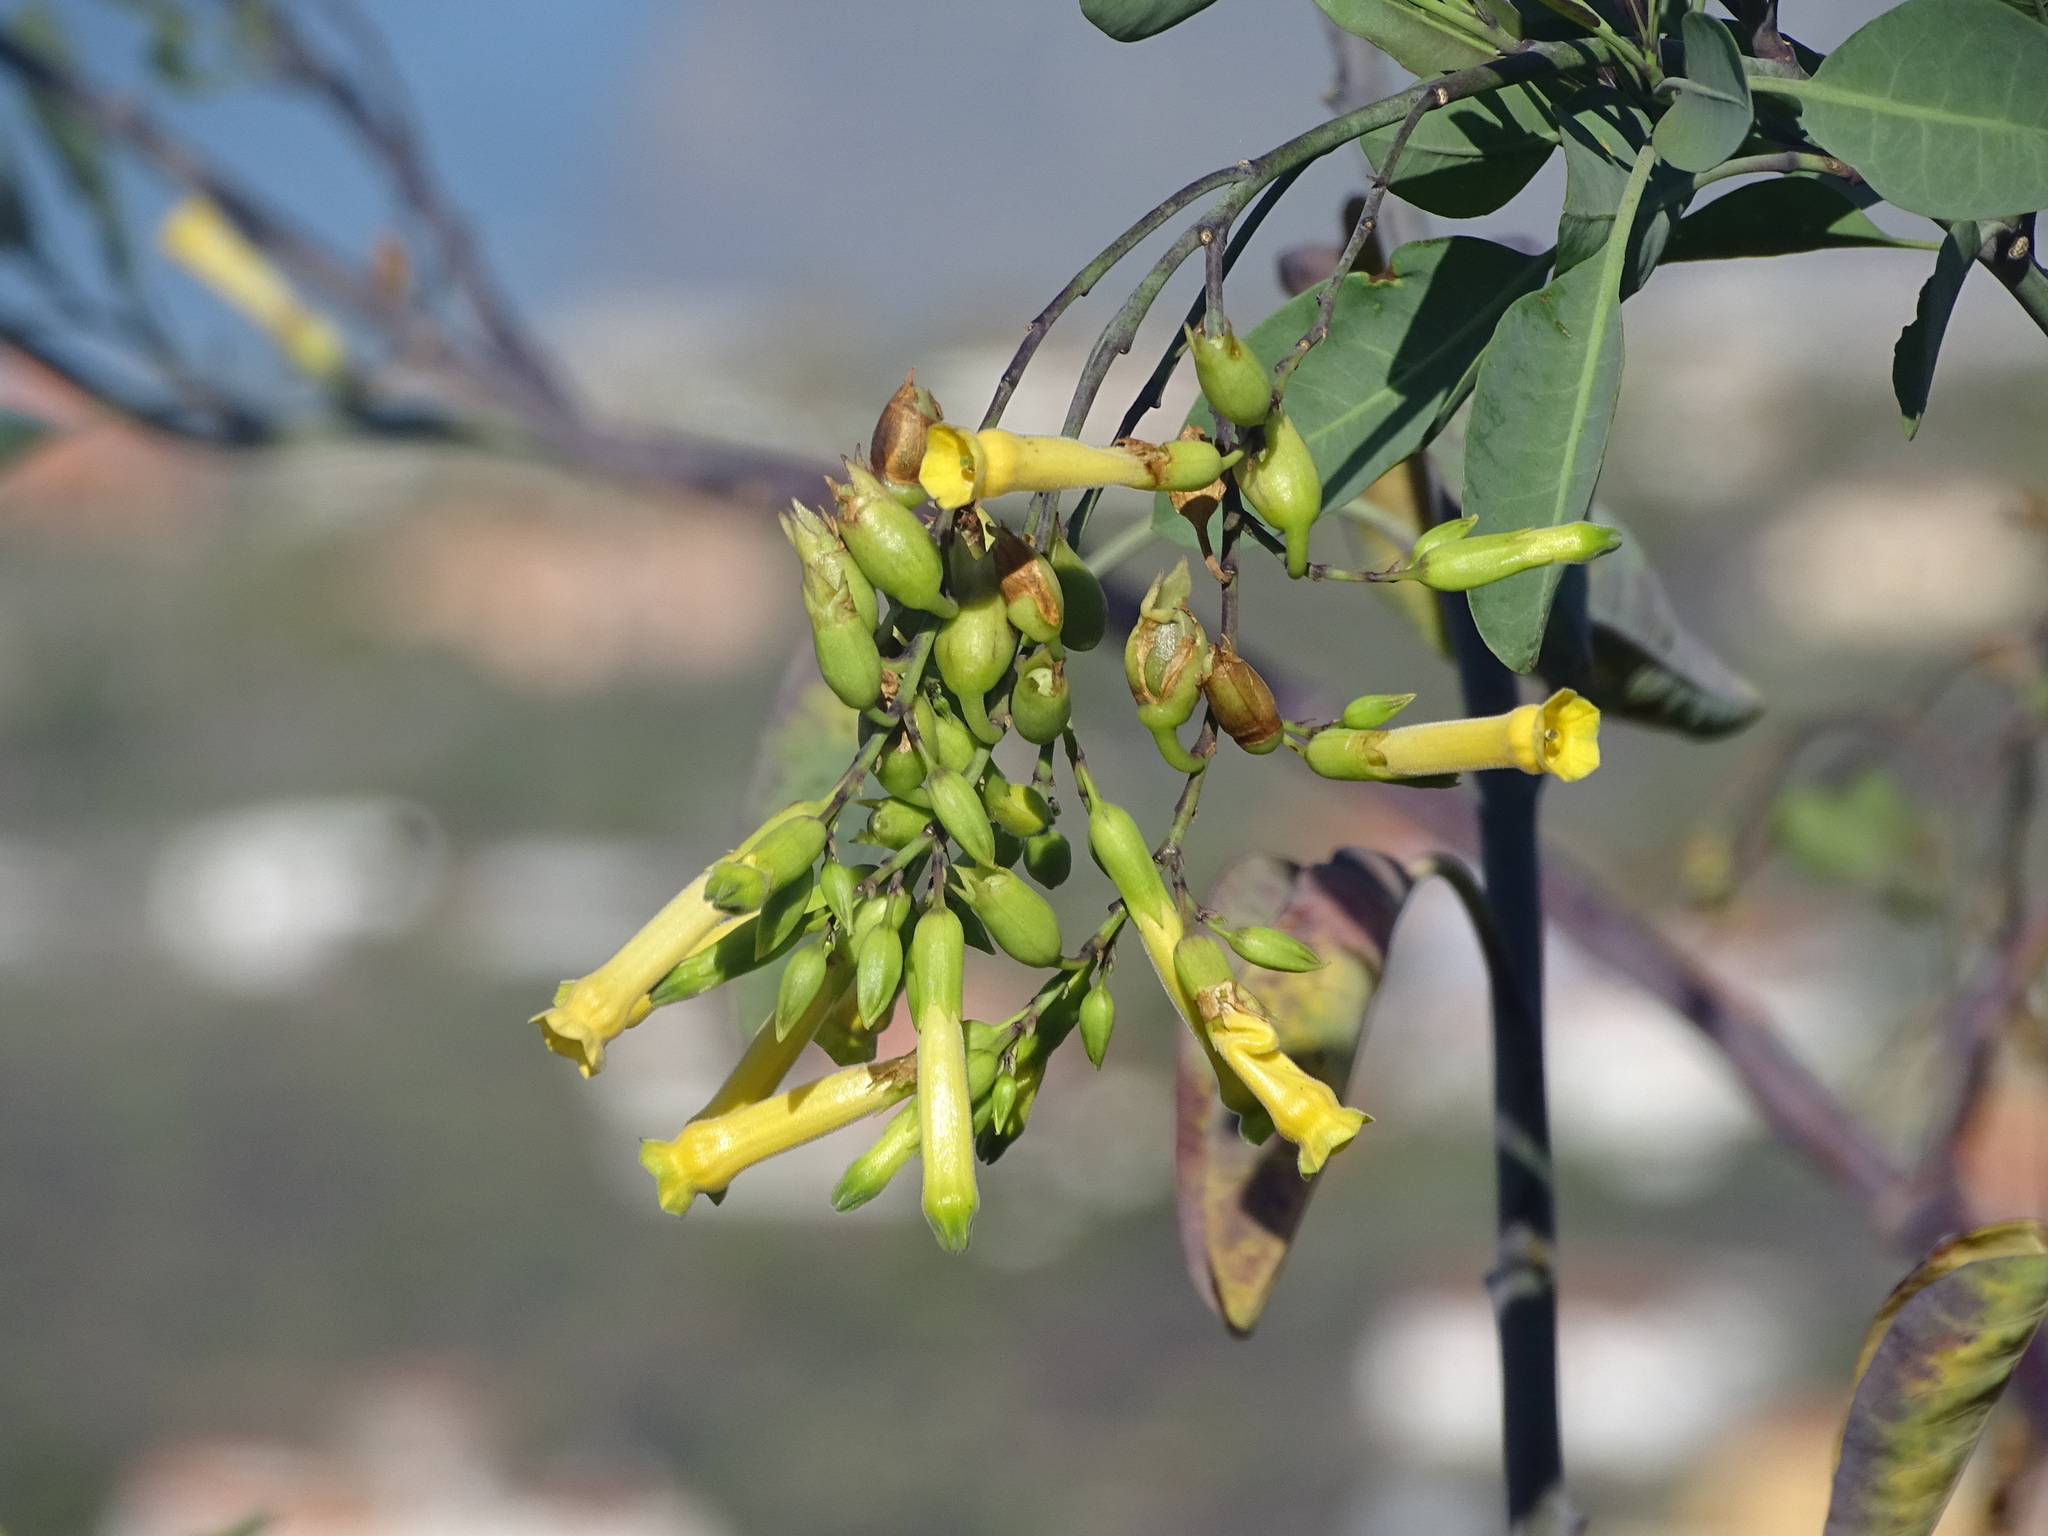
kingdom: Plantae
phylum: Tracheophyta
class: Magnoliopsida
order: Solanales
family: Solanaceae
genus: Nicotiana
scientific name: Nicotiana glauca
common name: Tree tobacco
